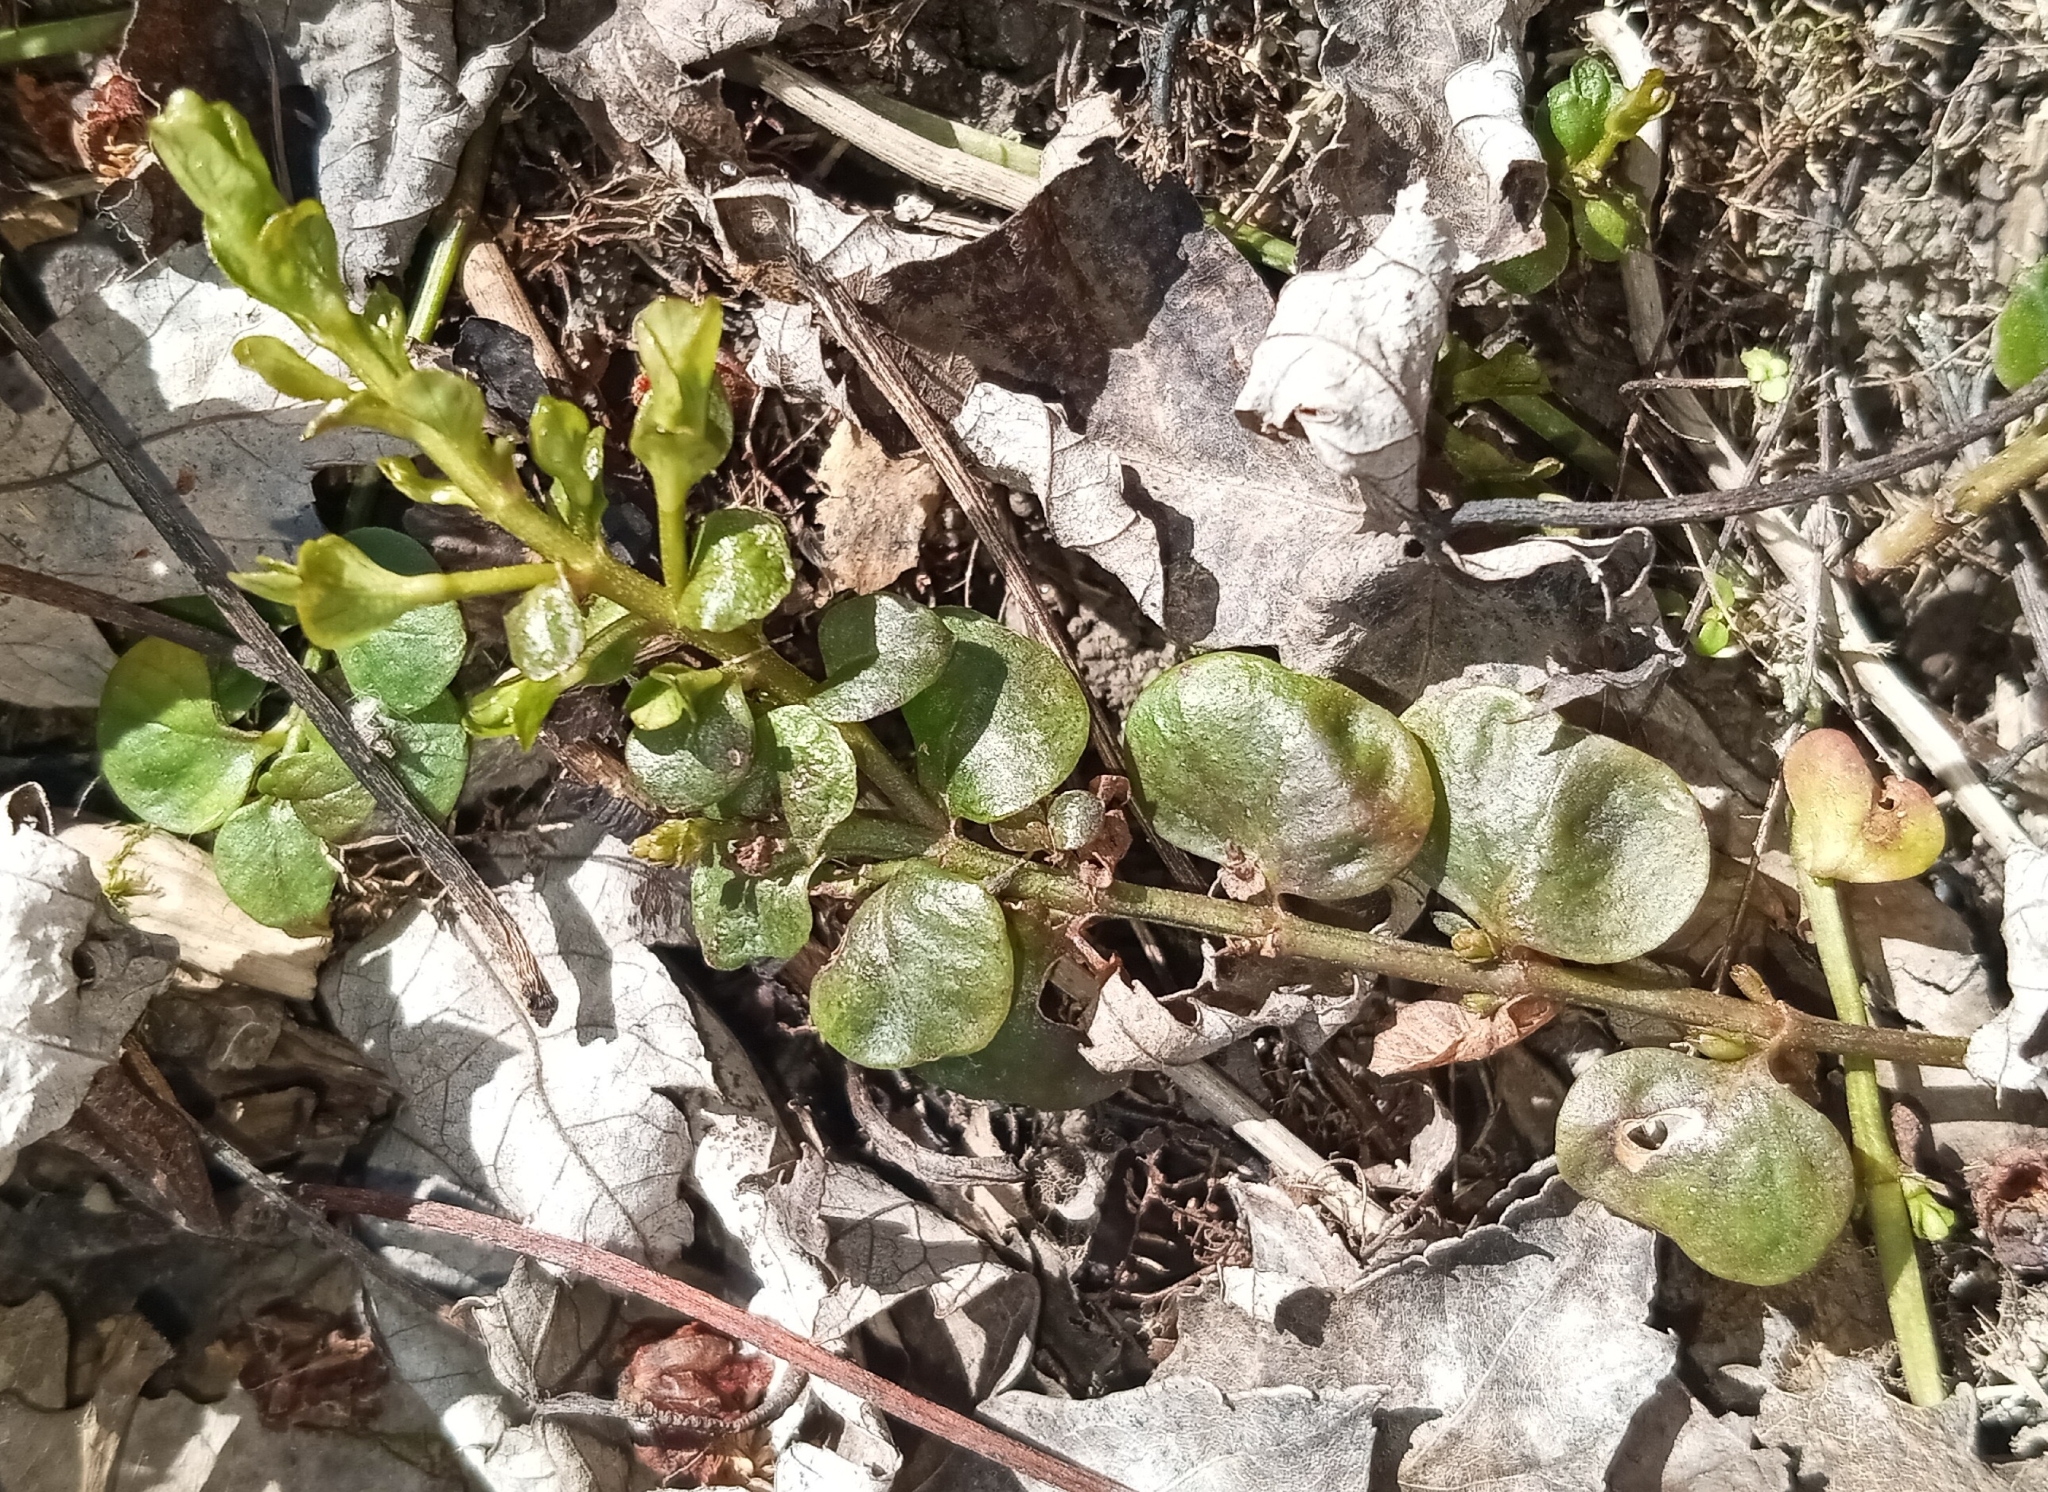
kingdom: Plantae
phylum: Tracheophyta
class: Magnoliopsida
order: Ericales
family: Primulaceae
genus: Lysimachia
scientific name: Lysimachia nummularia
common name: Moneywort
